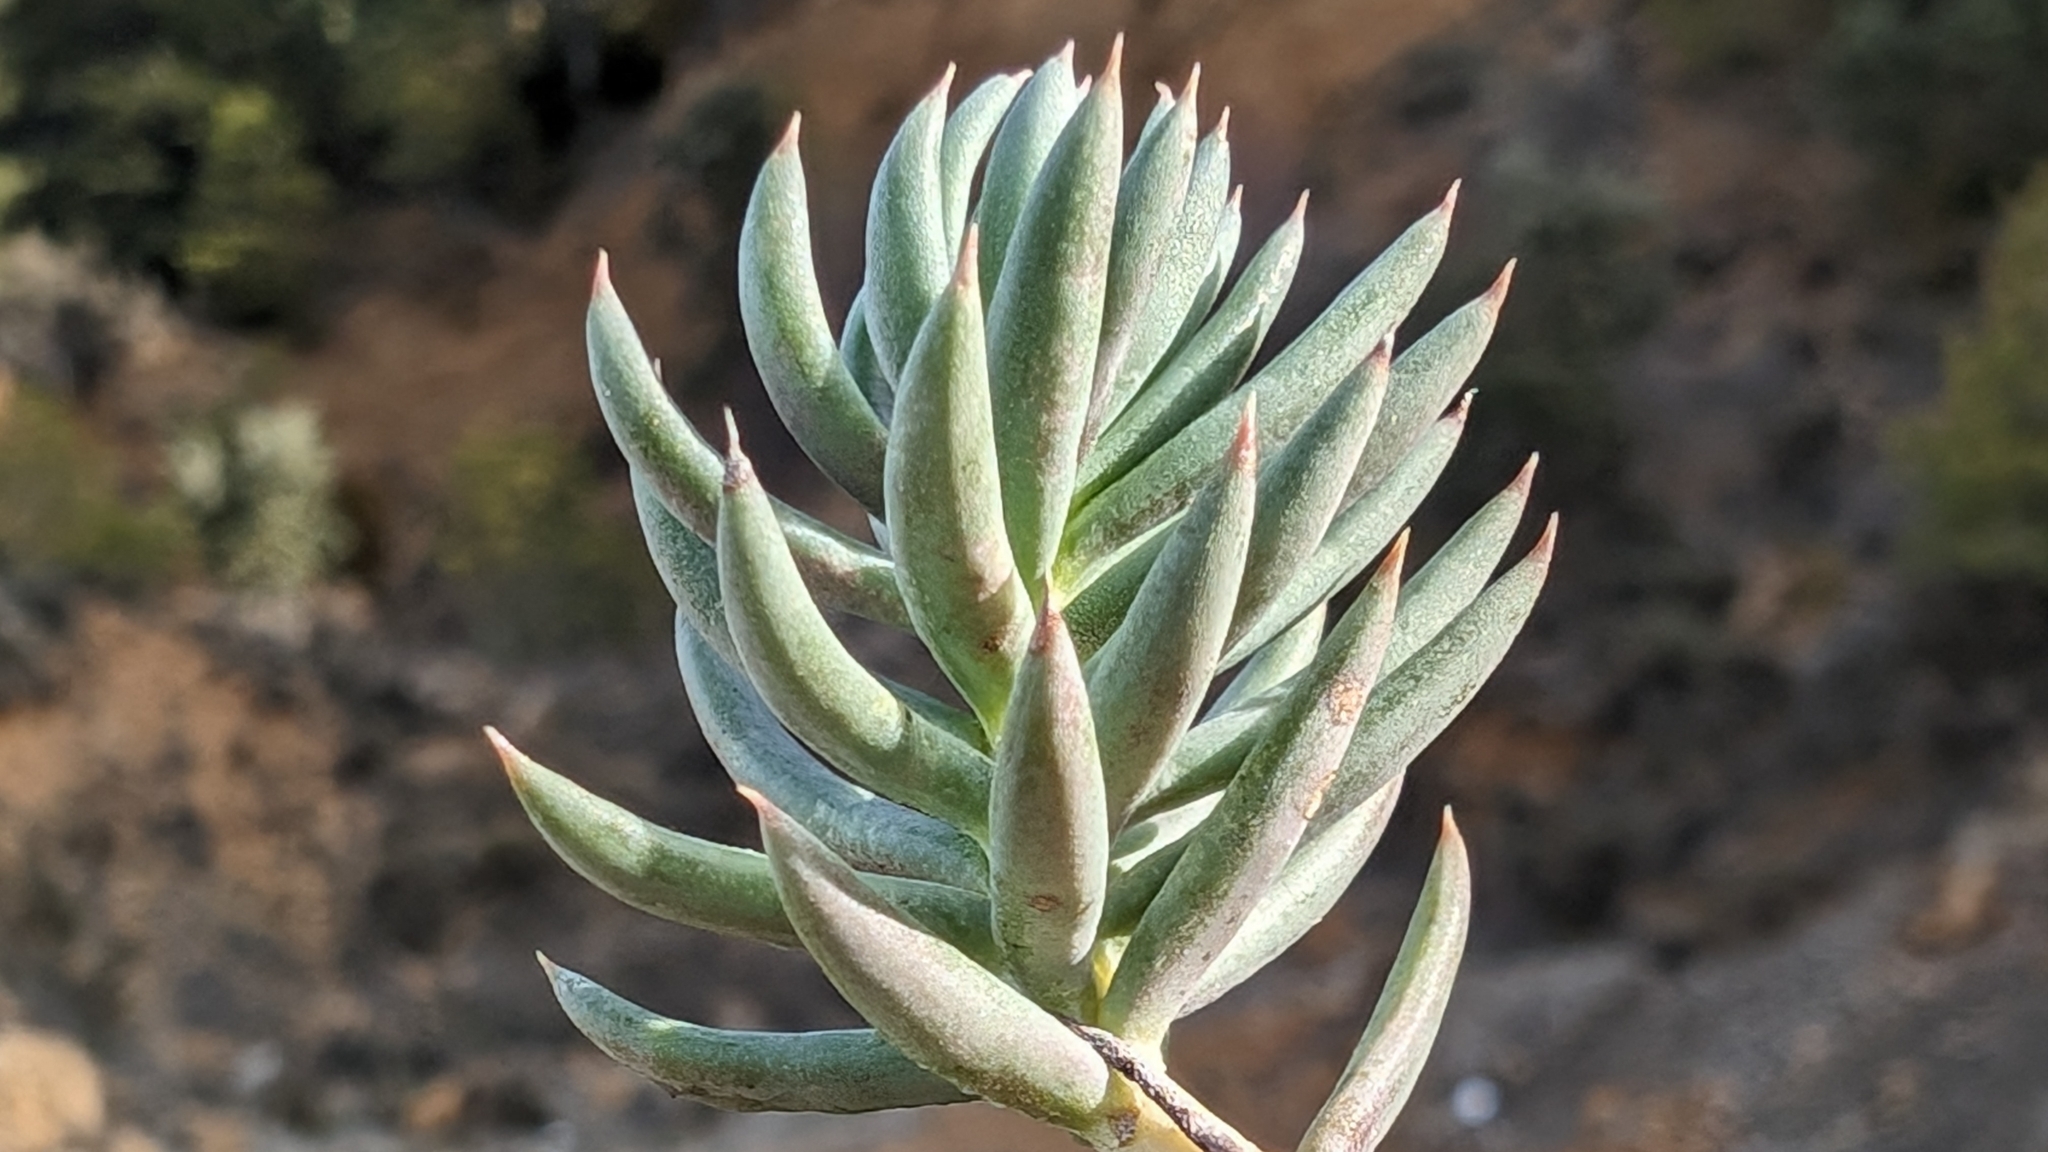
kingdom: Plantae
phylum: Tracheophyta
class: Magnoliopsida
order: Saxifragales
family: Crassulaceae
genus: Petrosedum
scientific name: Petrosedum sediforme
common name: Pale stonecrop
